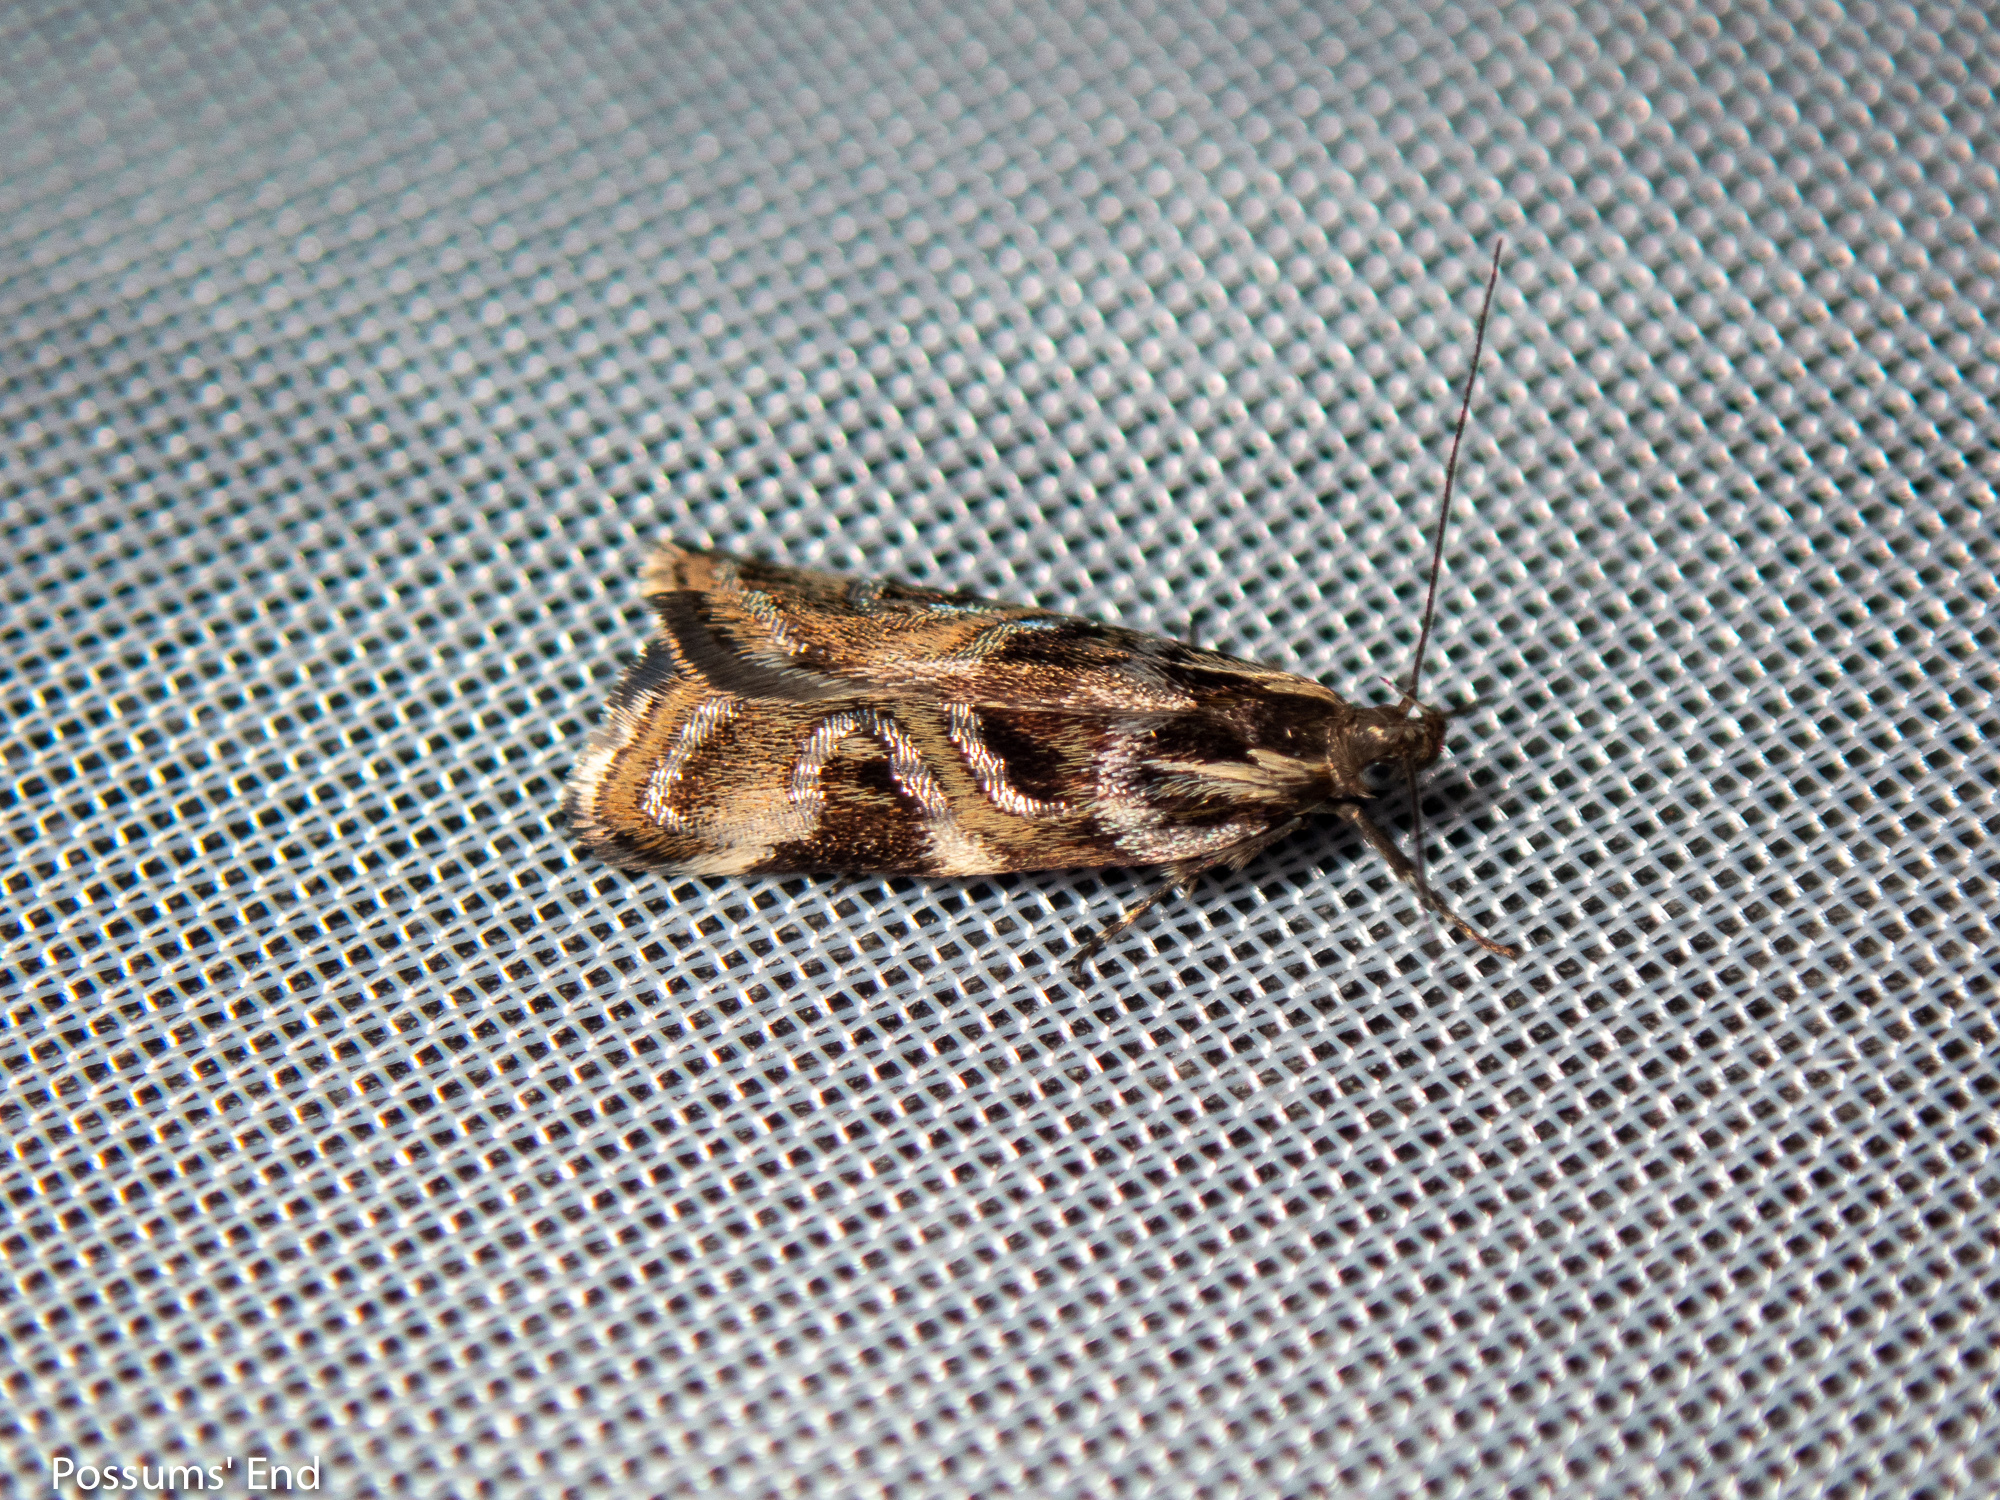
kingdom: Animalia
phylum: Arthropoda
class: Insecta
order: Lepidoptera
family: Oecophoridae
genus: Hierodoris
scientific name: Hierodoris s-fractum
